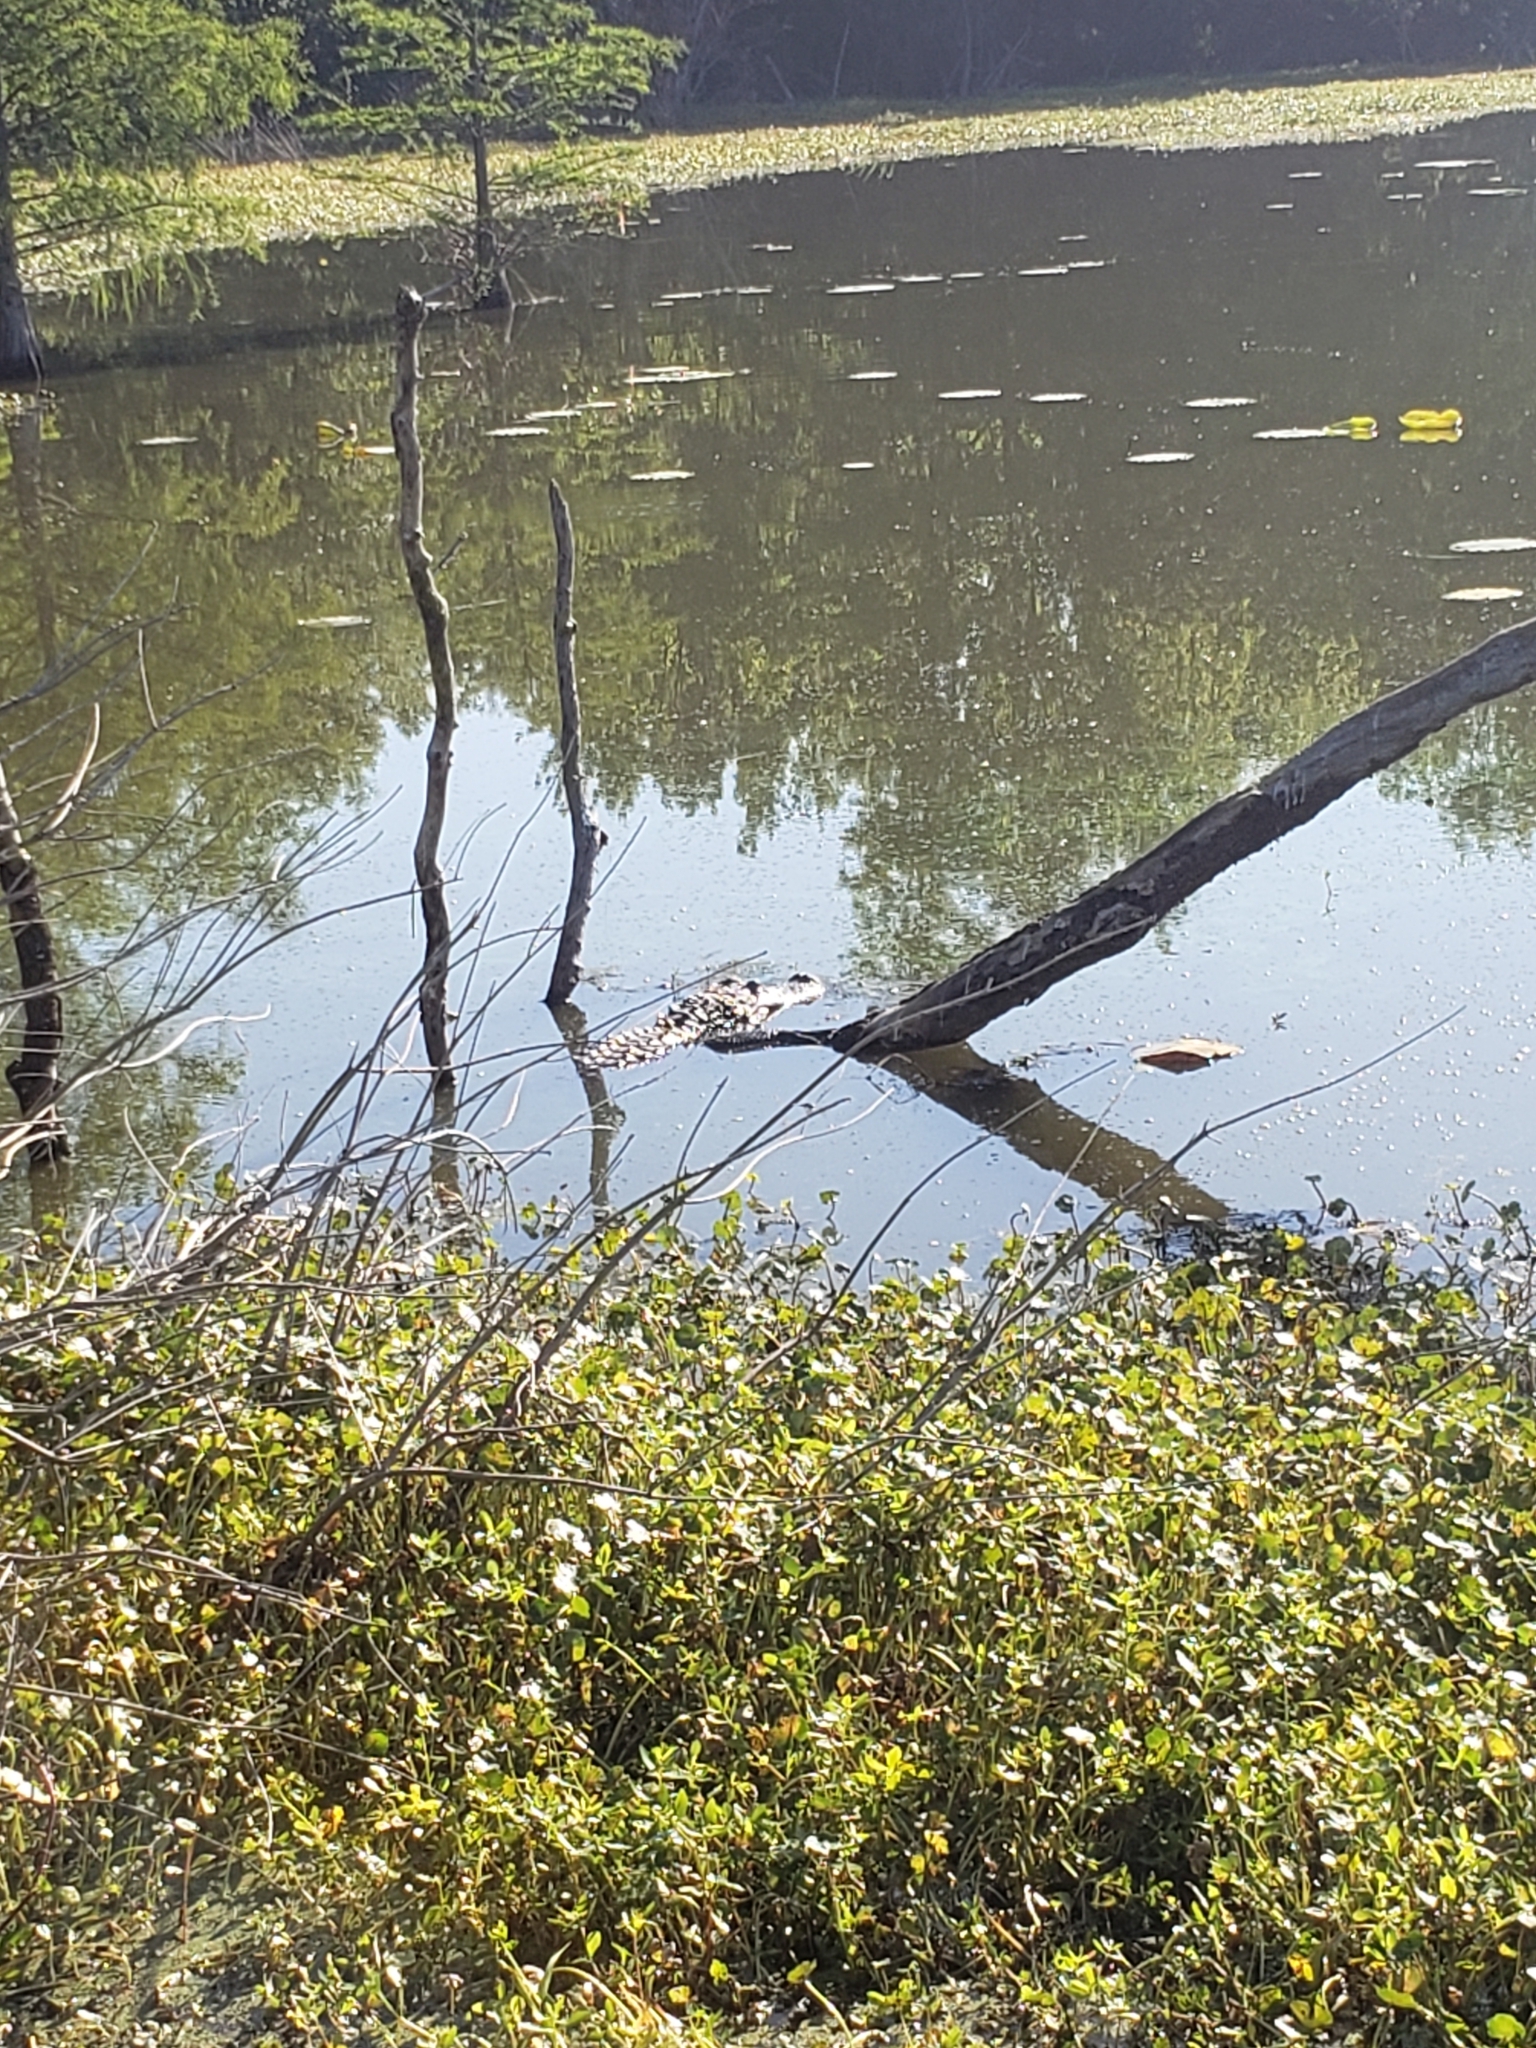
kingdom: Animalia
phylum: Chordata
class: Crocodylia
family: Alligatoridae
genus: Alligator
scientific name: Alligator mississippiensis
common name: American alligator
